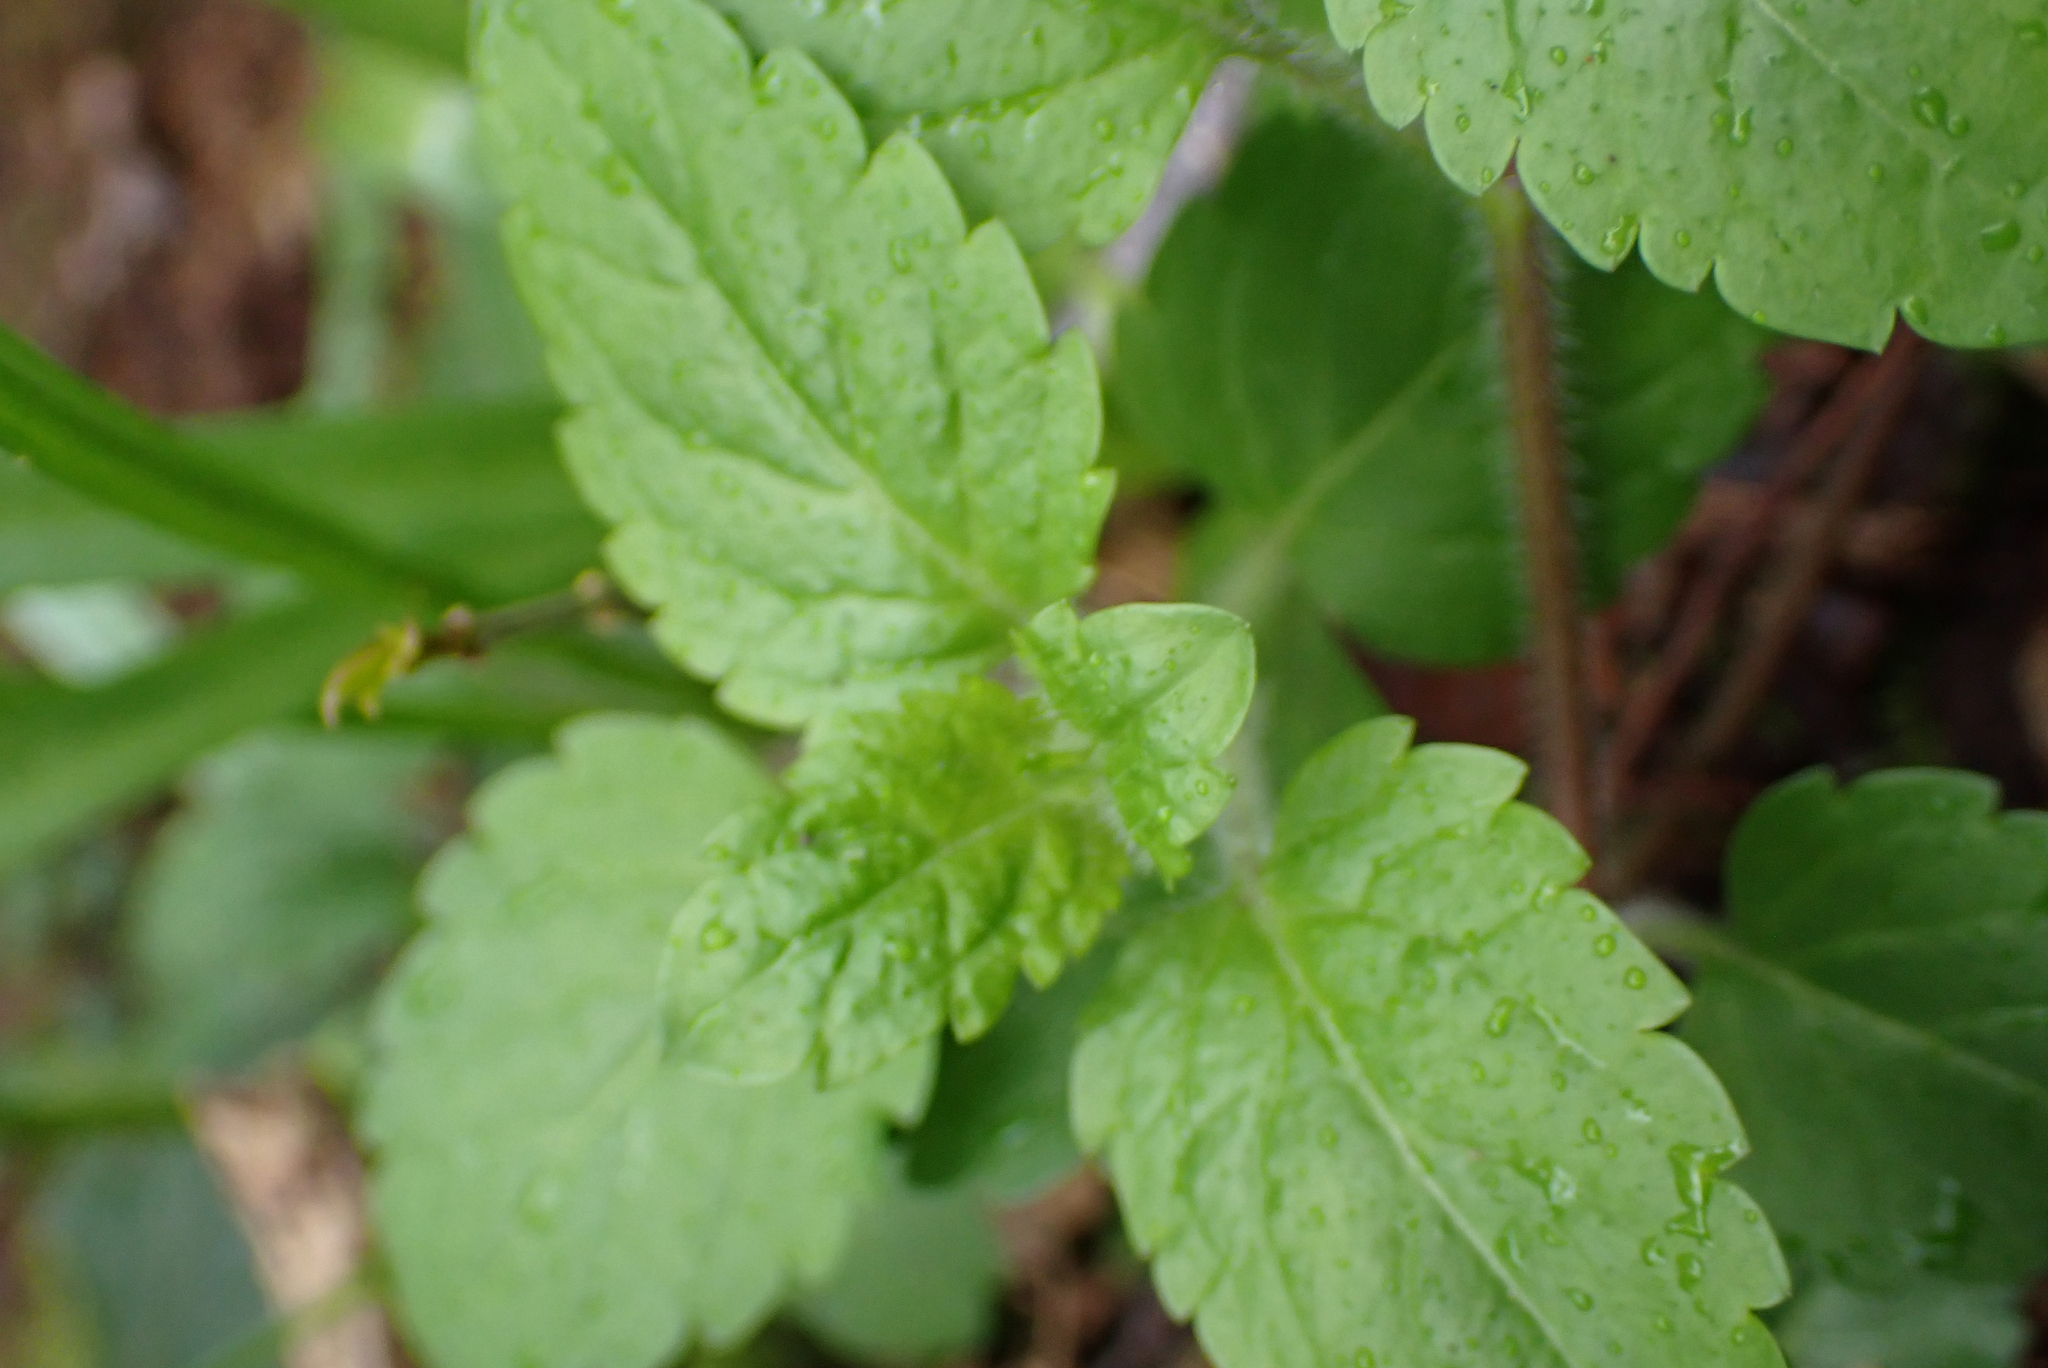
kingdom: Plantae
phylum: Tracheophyta
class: Magnoliopsida
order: Lamiales
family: Plantaginaceae
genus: Veronica
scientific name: Veronica montana
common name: Wood speedwell
